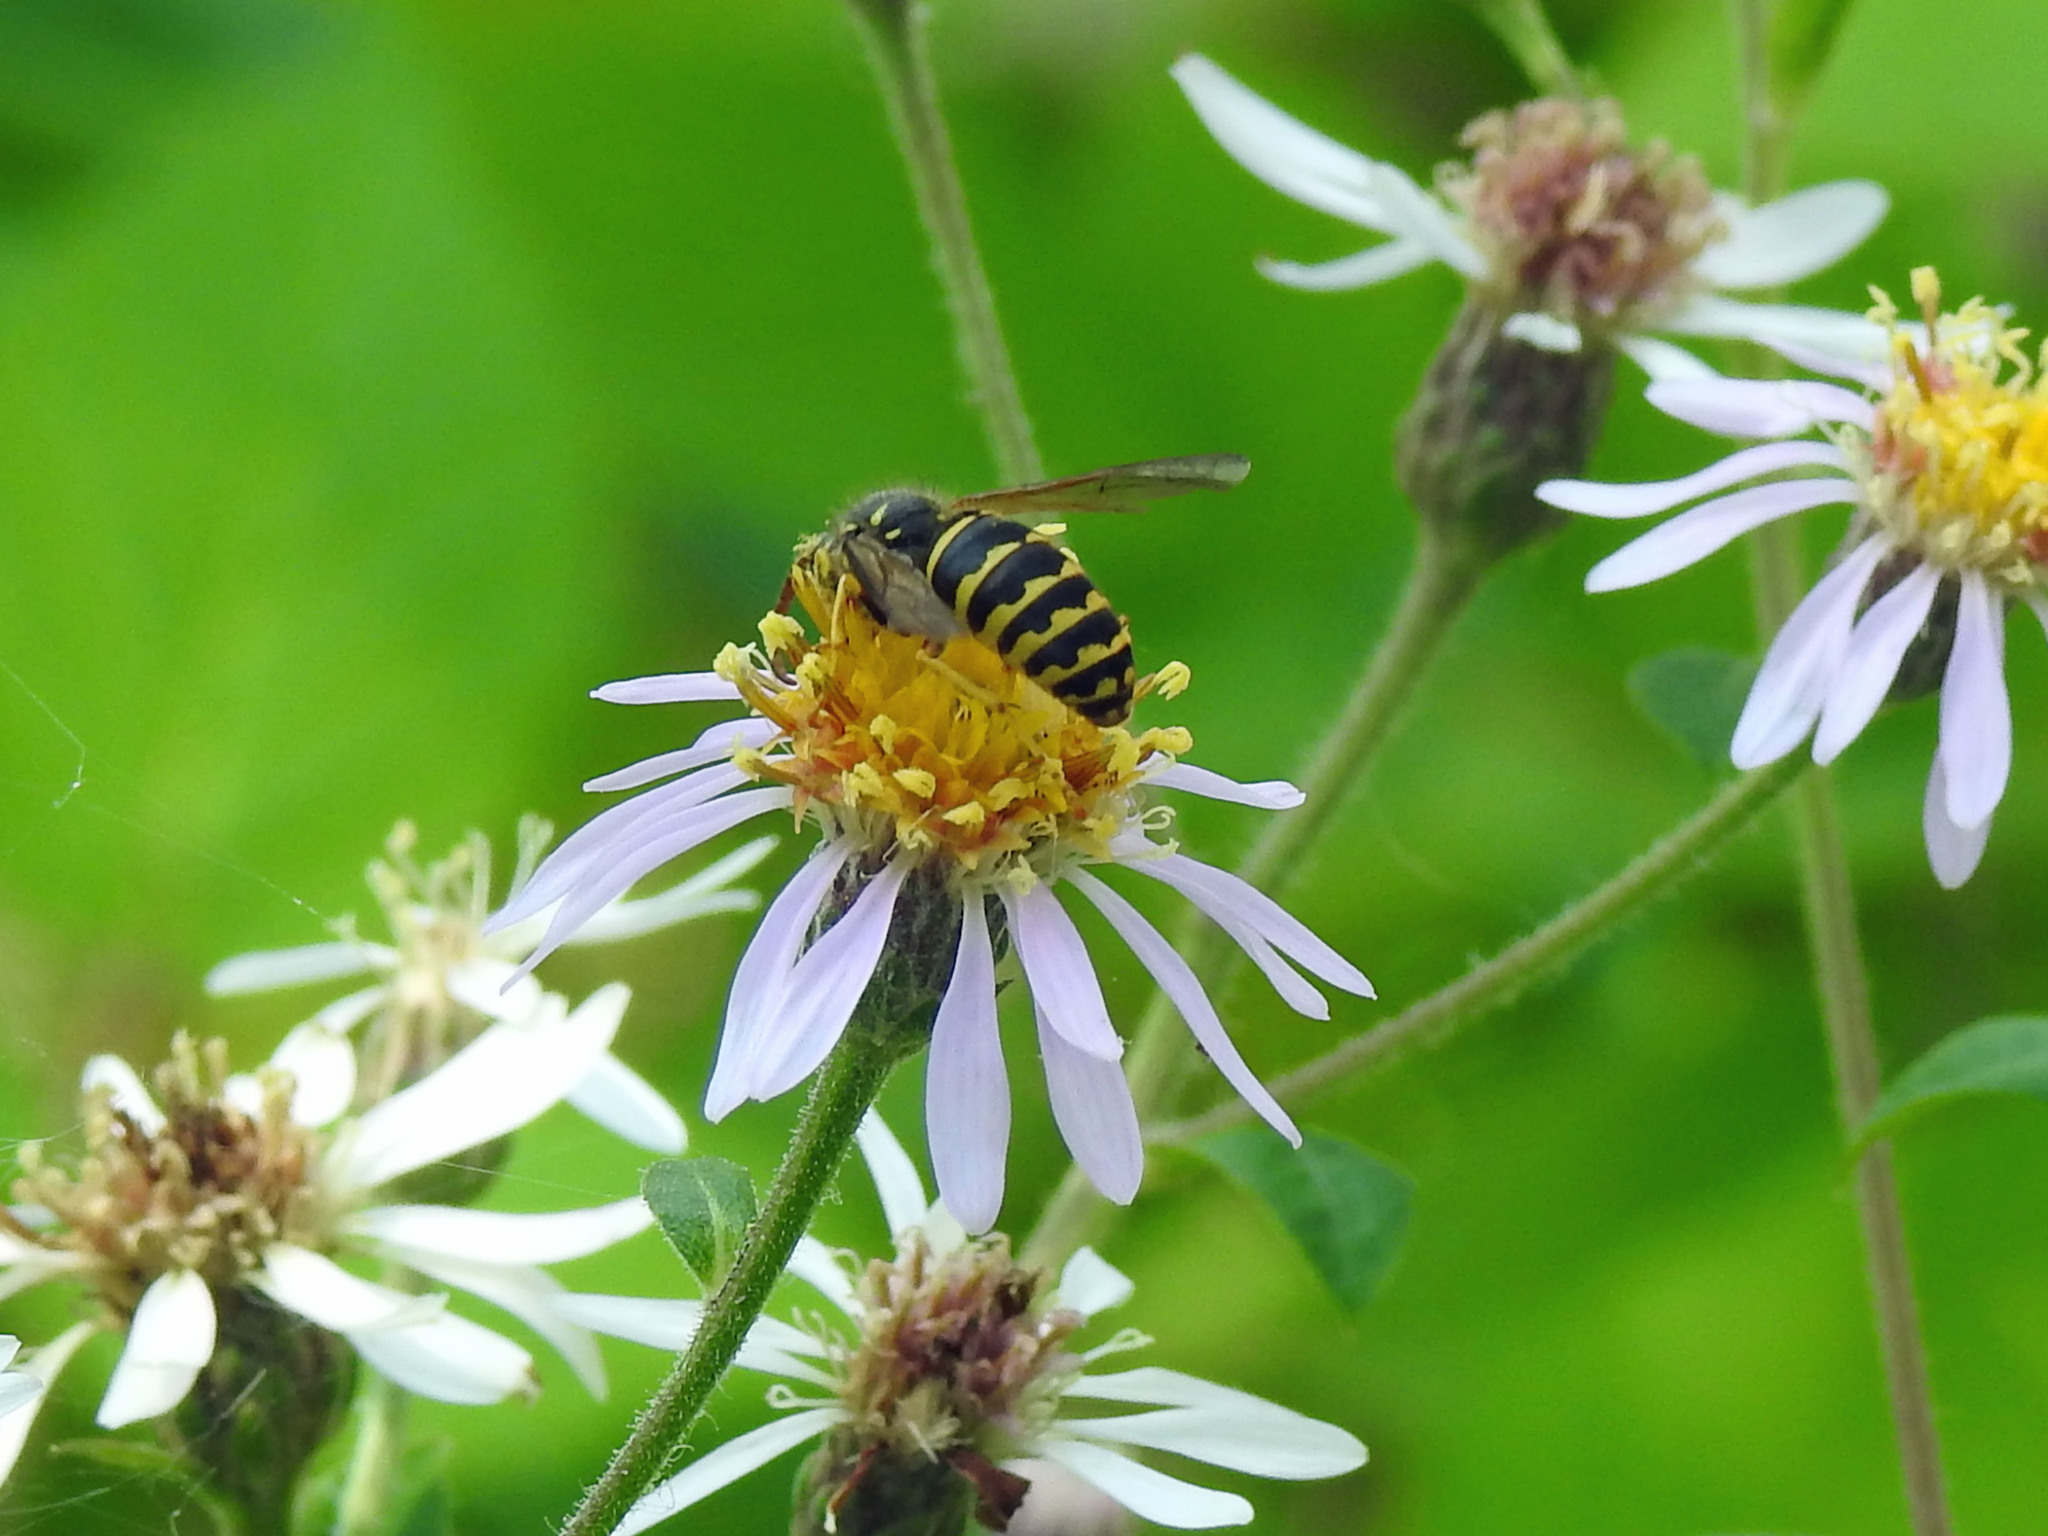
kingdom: Animalia
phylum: Arthropoda
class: Insecta
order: Hymenoptera
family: Vespidae
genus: Dolichovespula
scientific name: Dolichovespula arenaria
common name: Aerial yellowjacket
